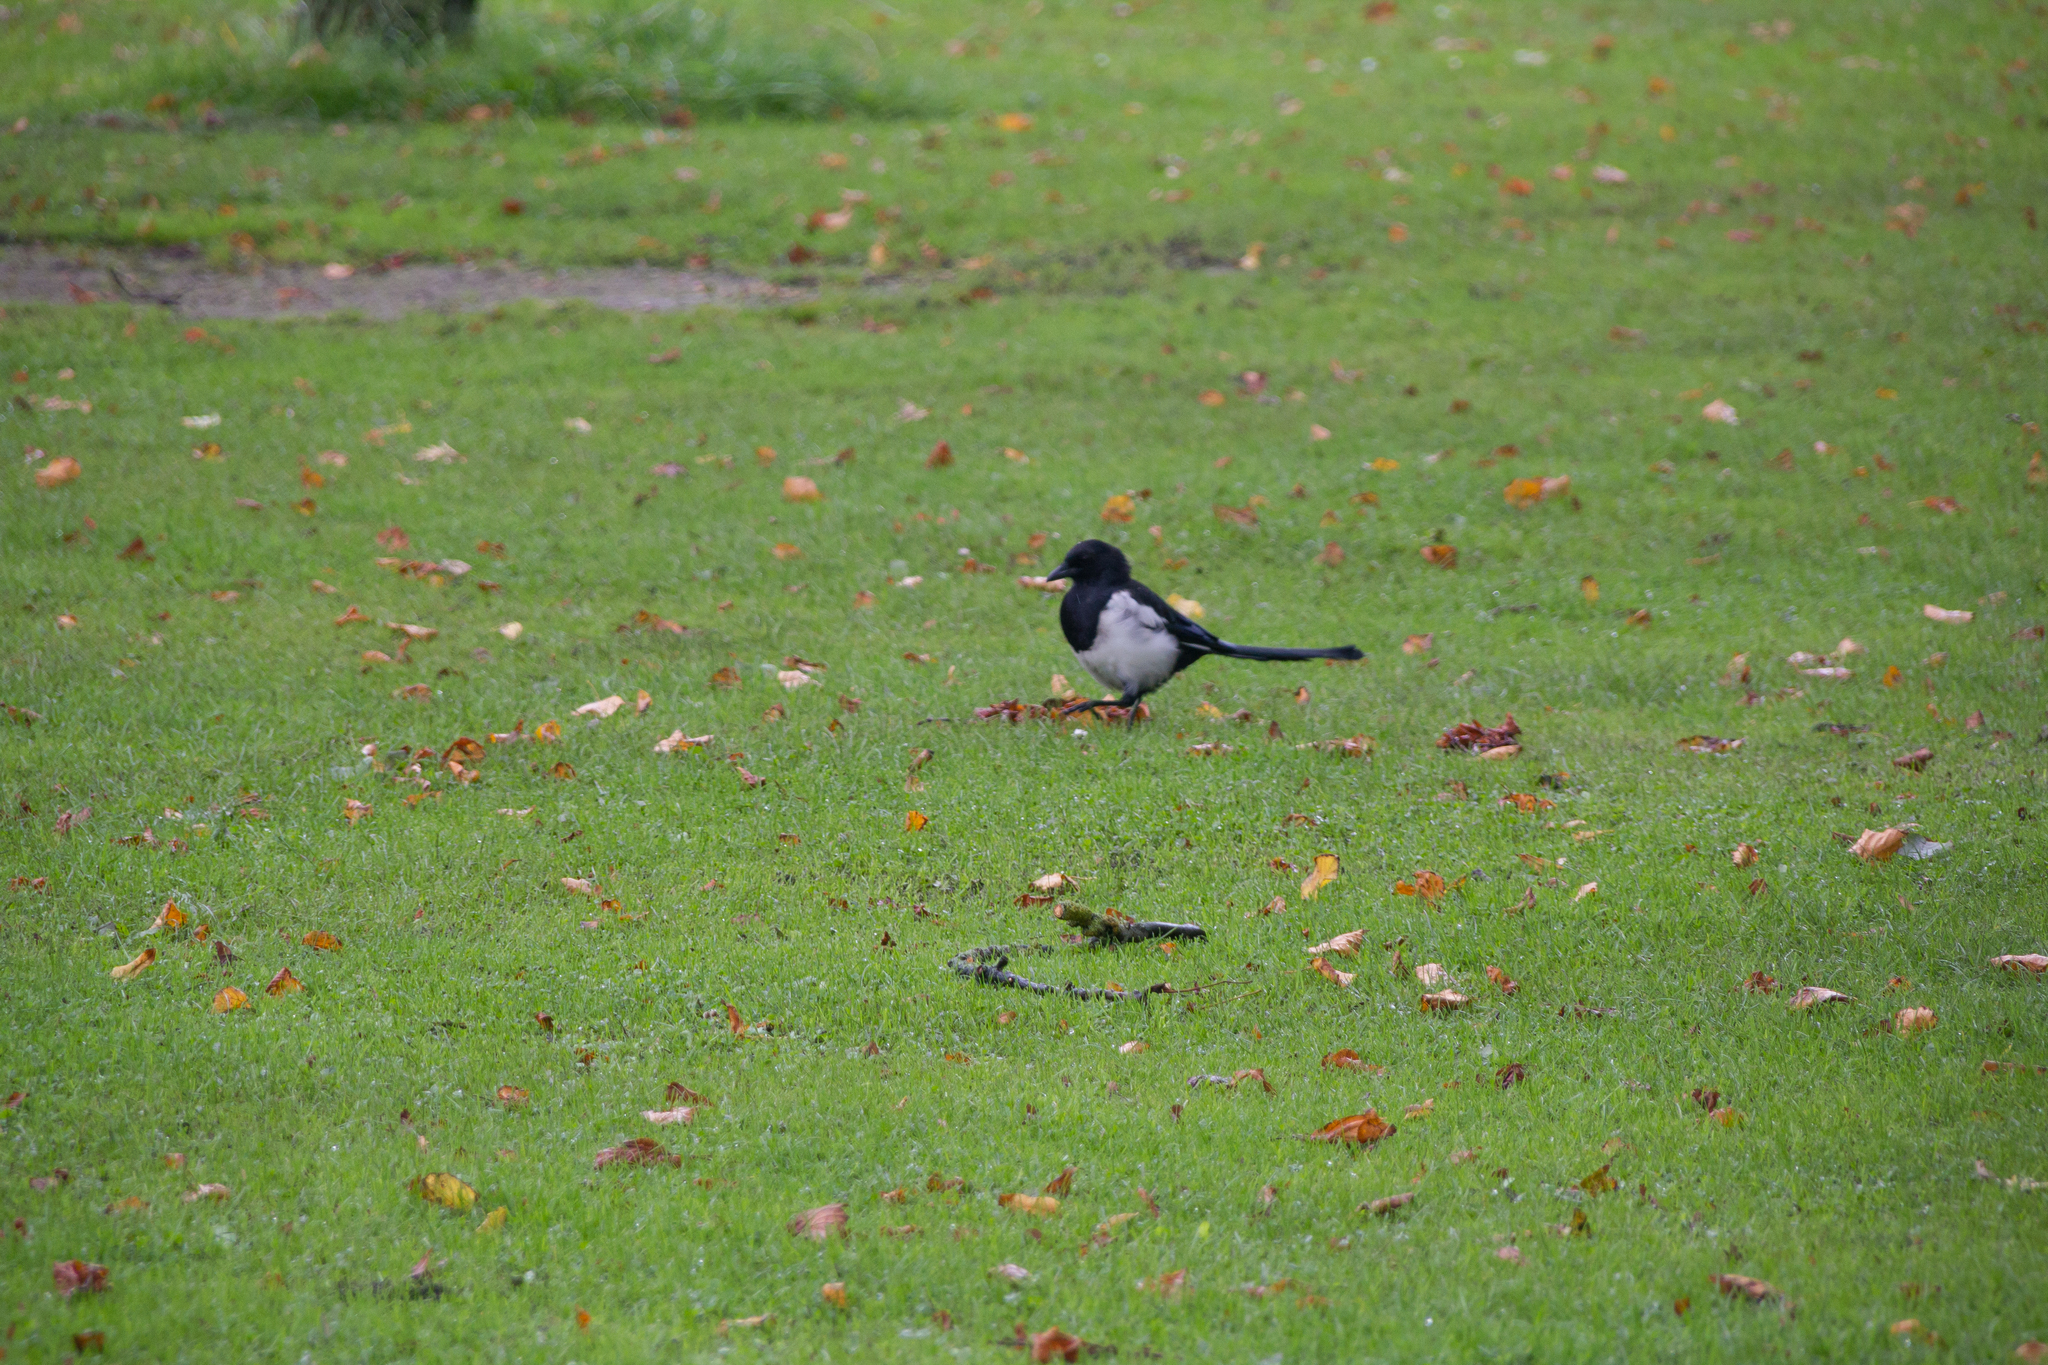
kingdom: Animalia
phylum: Chordata
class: Aves
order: Passeriformes
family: Corvidae
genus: Pica
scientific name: Pica pica
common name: Eurasian magpie
